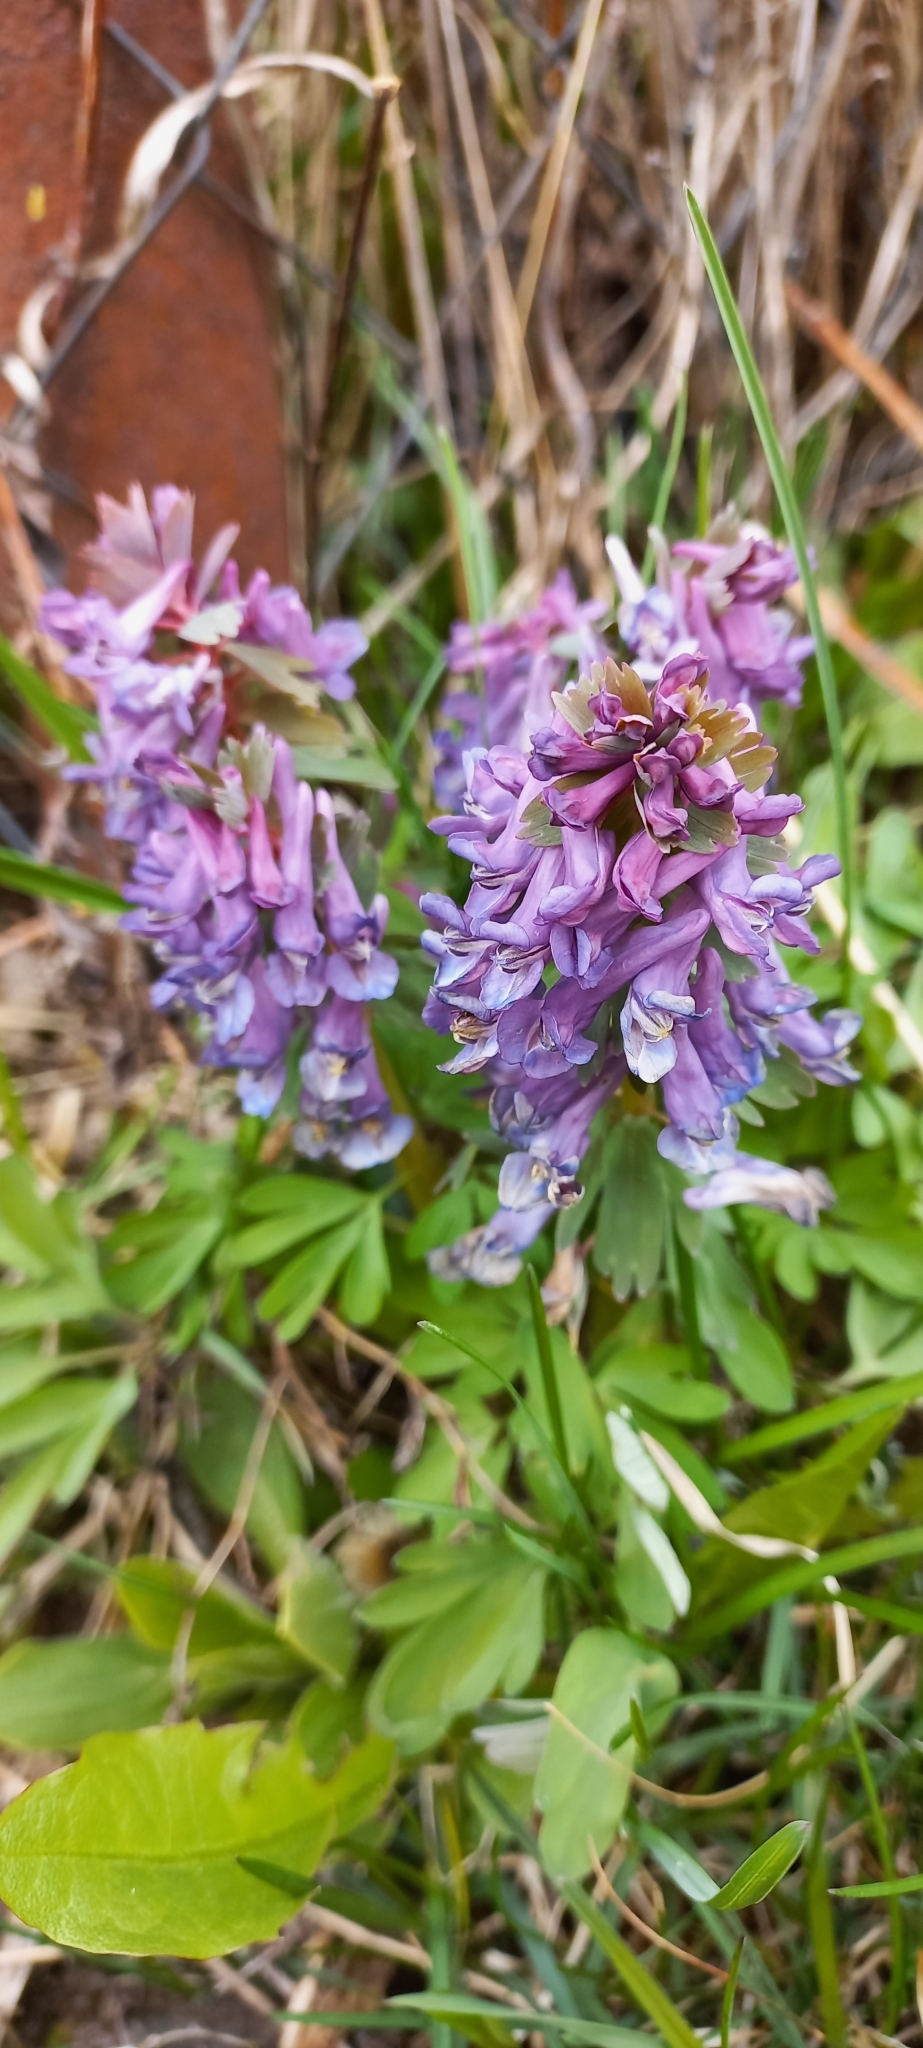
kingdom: Plantae
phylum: Tracheophyta
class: Magnoliopsida
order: Ranunculales
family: Papaveraceae
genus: Corydalis
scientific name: Corydalis solida
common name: Bird-in-a-bush
